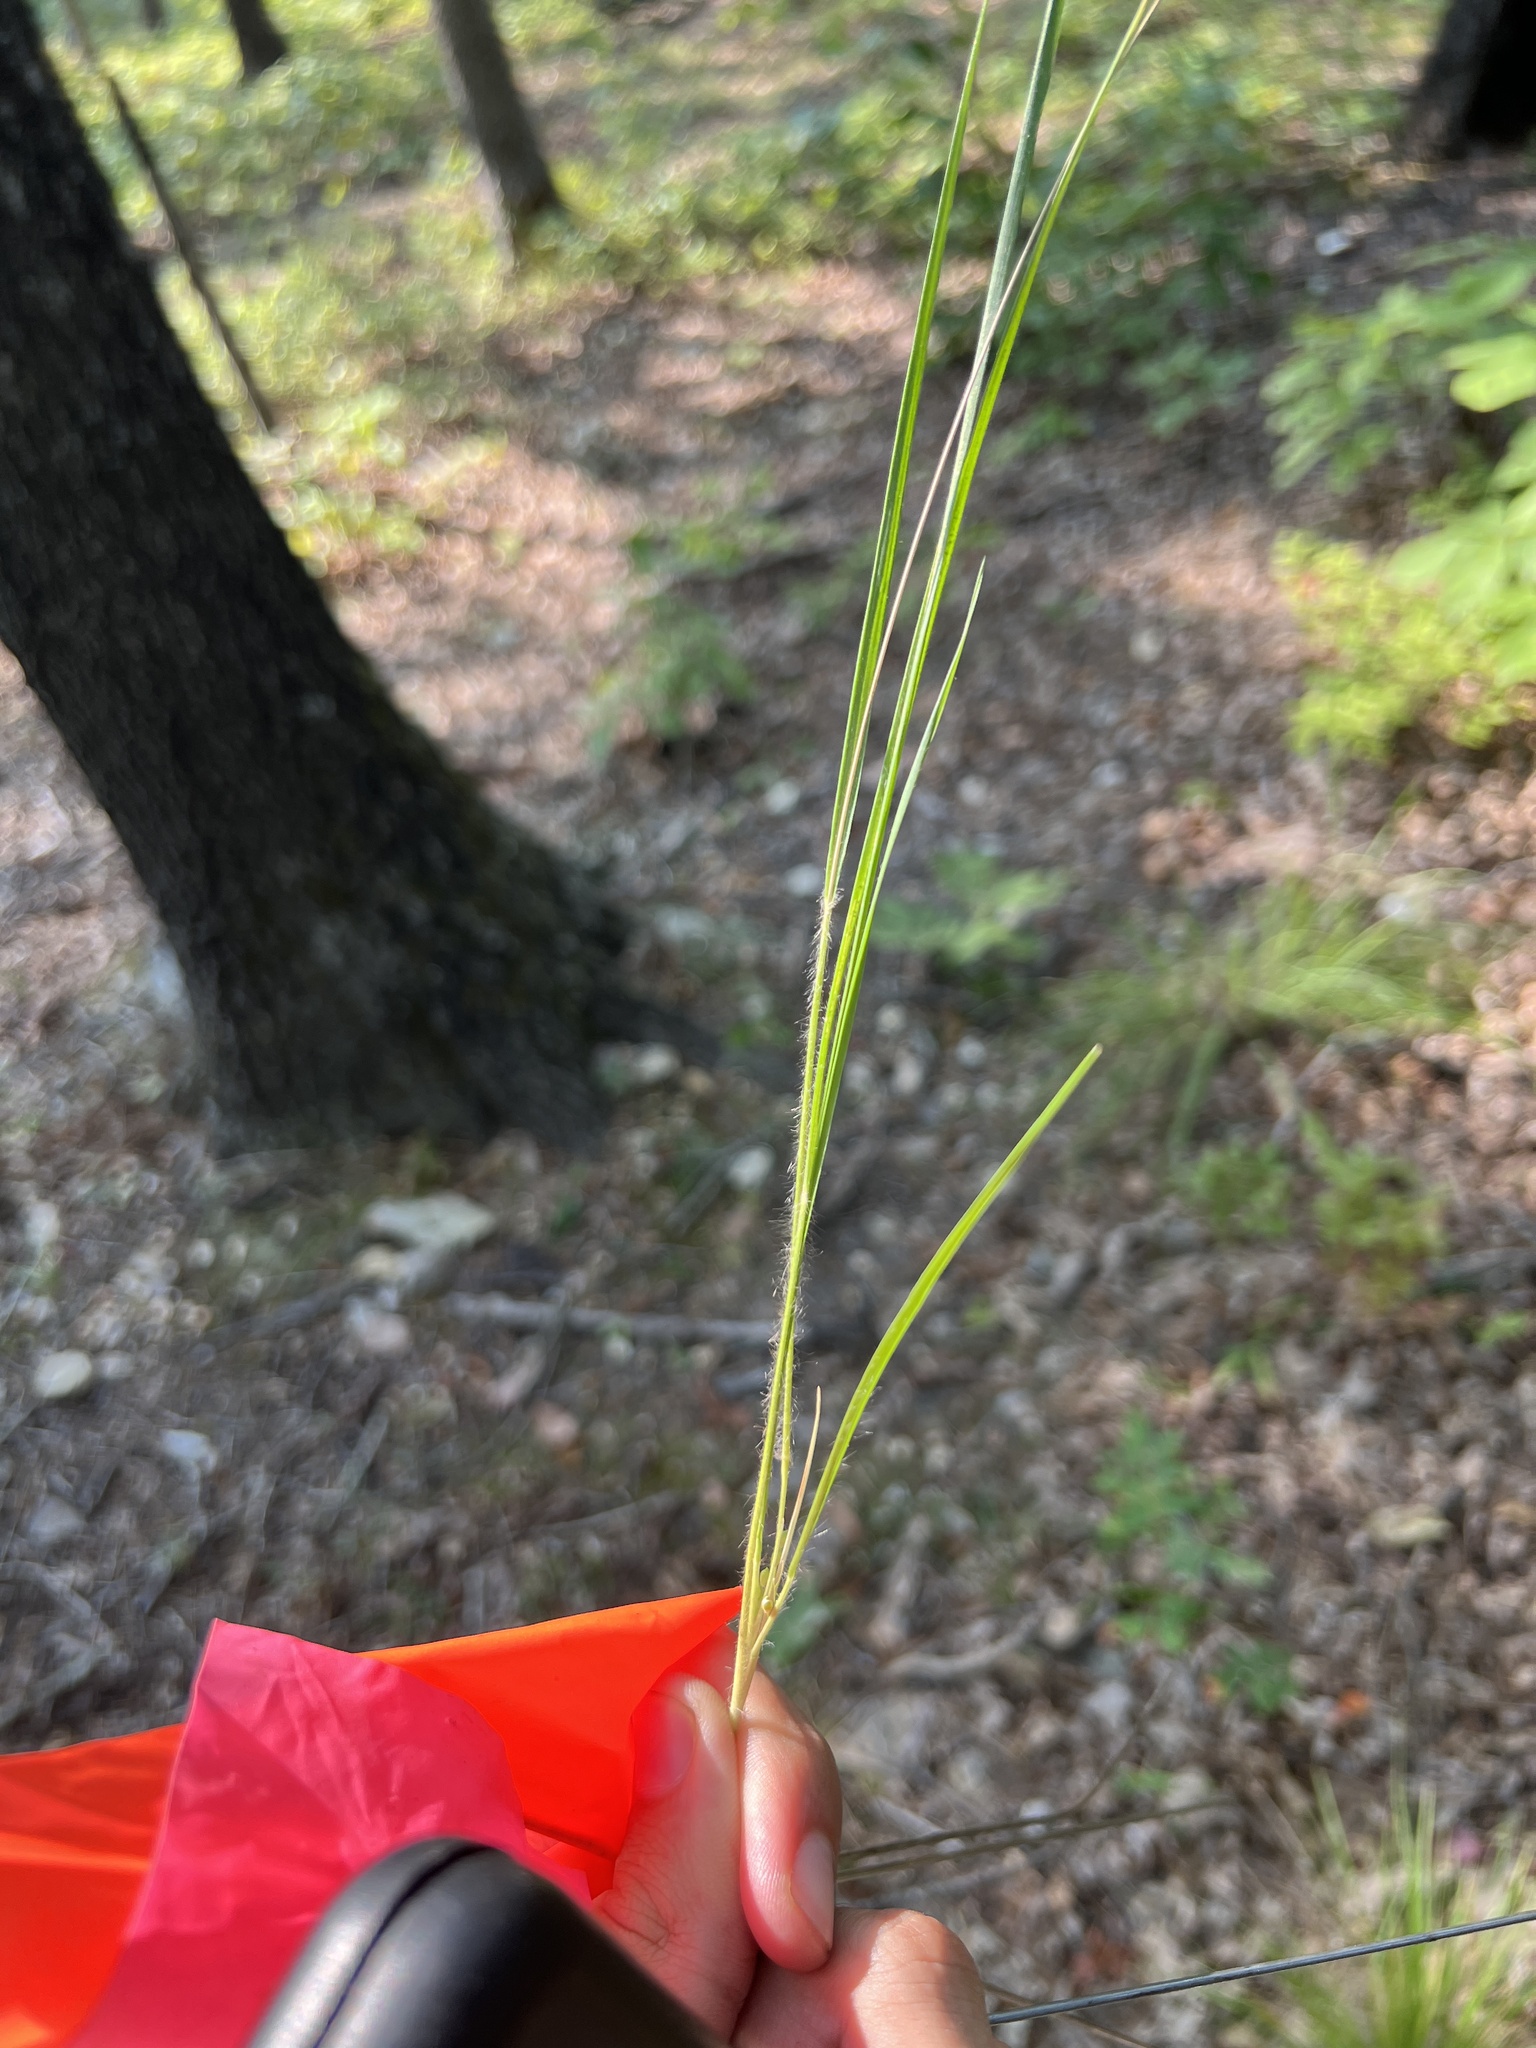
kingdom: Plantae
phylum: Tracheophyta
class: Liliopsida
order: Poales
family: Poaceae
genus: Dichanthelium
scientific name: Dichanthelium linearifolium
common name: Linear-leaved panicgrass
